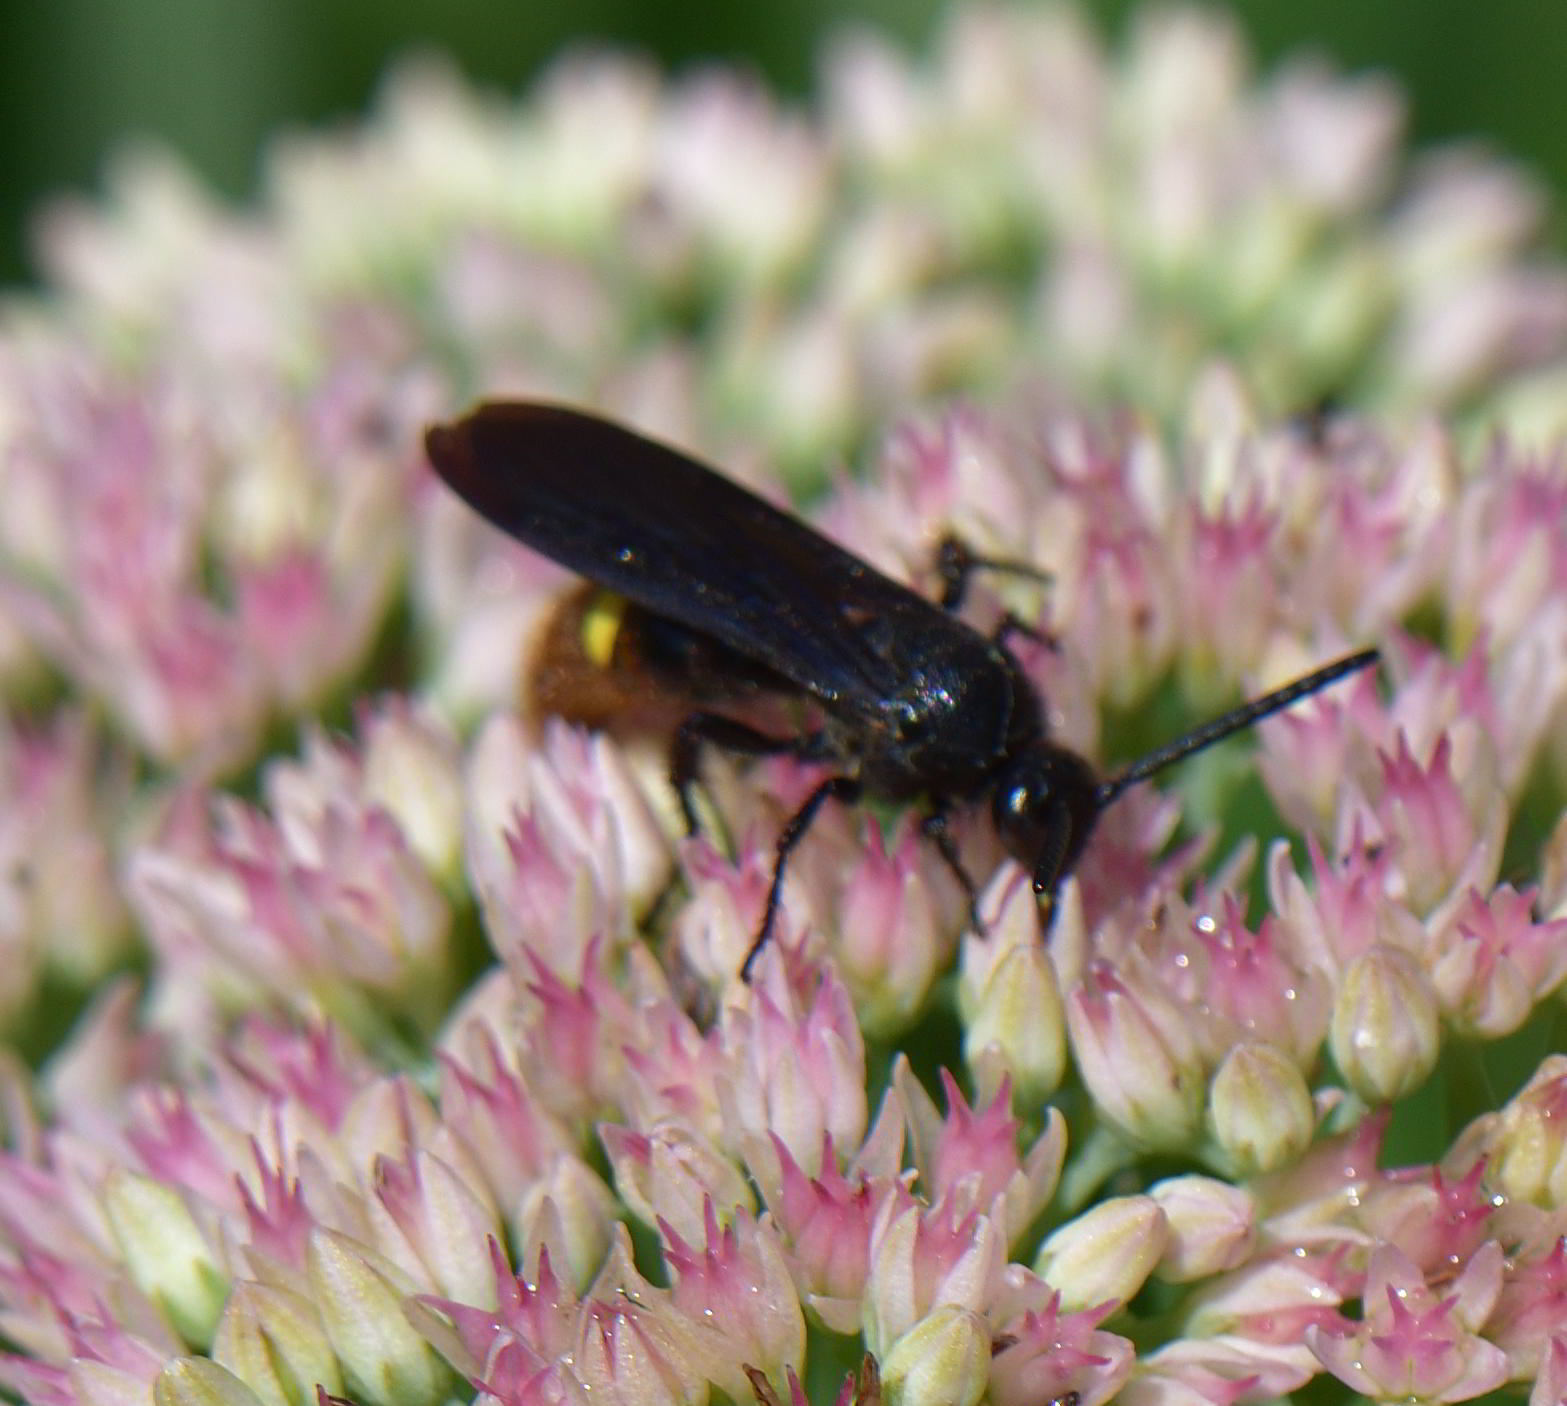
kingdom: Animalia
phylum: Arthropoda
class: Insecta
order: Hymenoptera
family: Scoliidae
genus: Scolia
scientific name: Scolia dubia
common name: Blue-winged scoliid wasp
